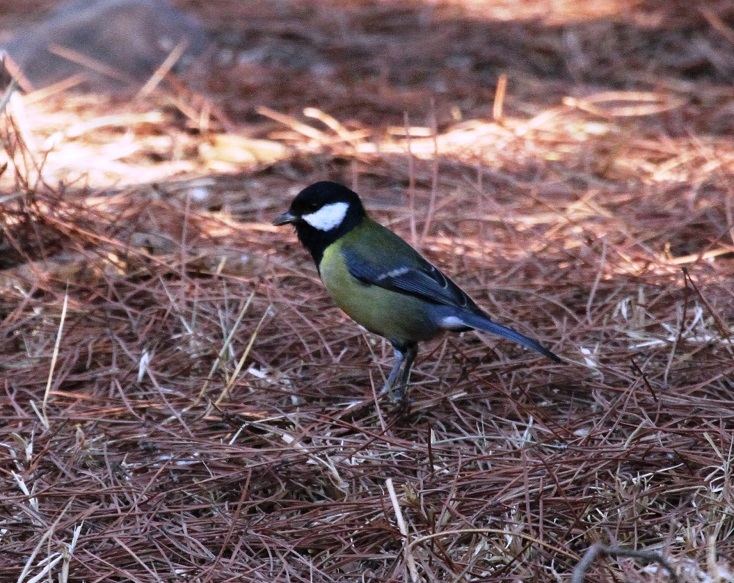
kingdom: Animalia
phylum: Chordata
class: Aves
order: Passeriformes
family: Paridae
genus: Parus
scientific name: Parus major
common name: Great tit
